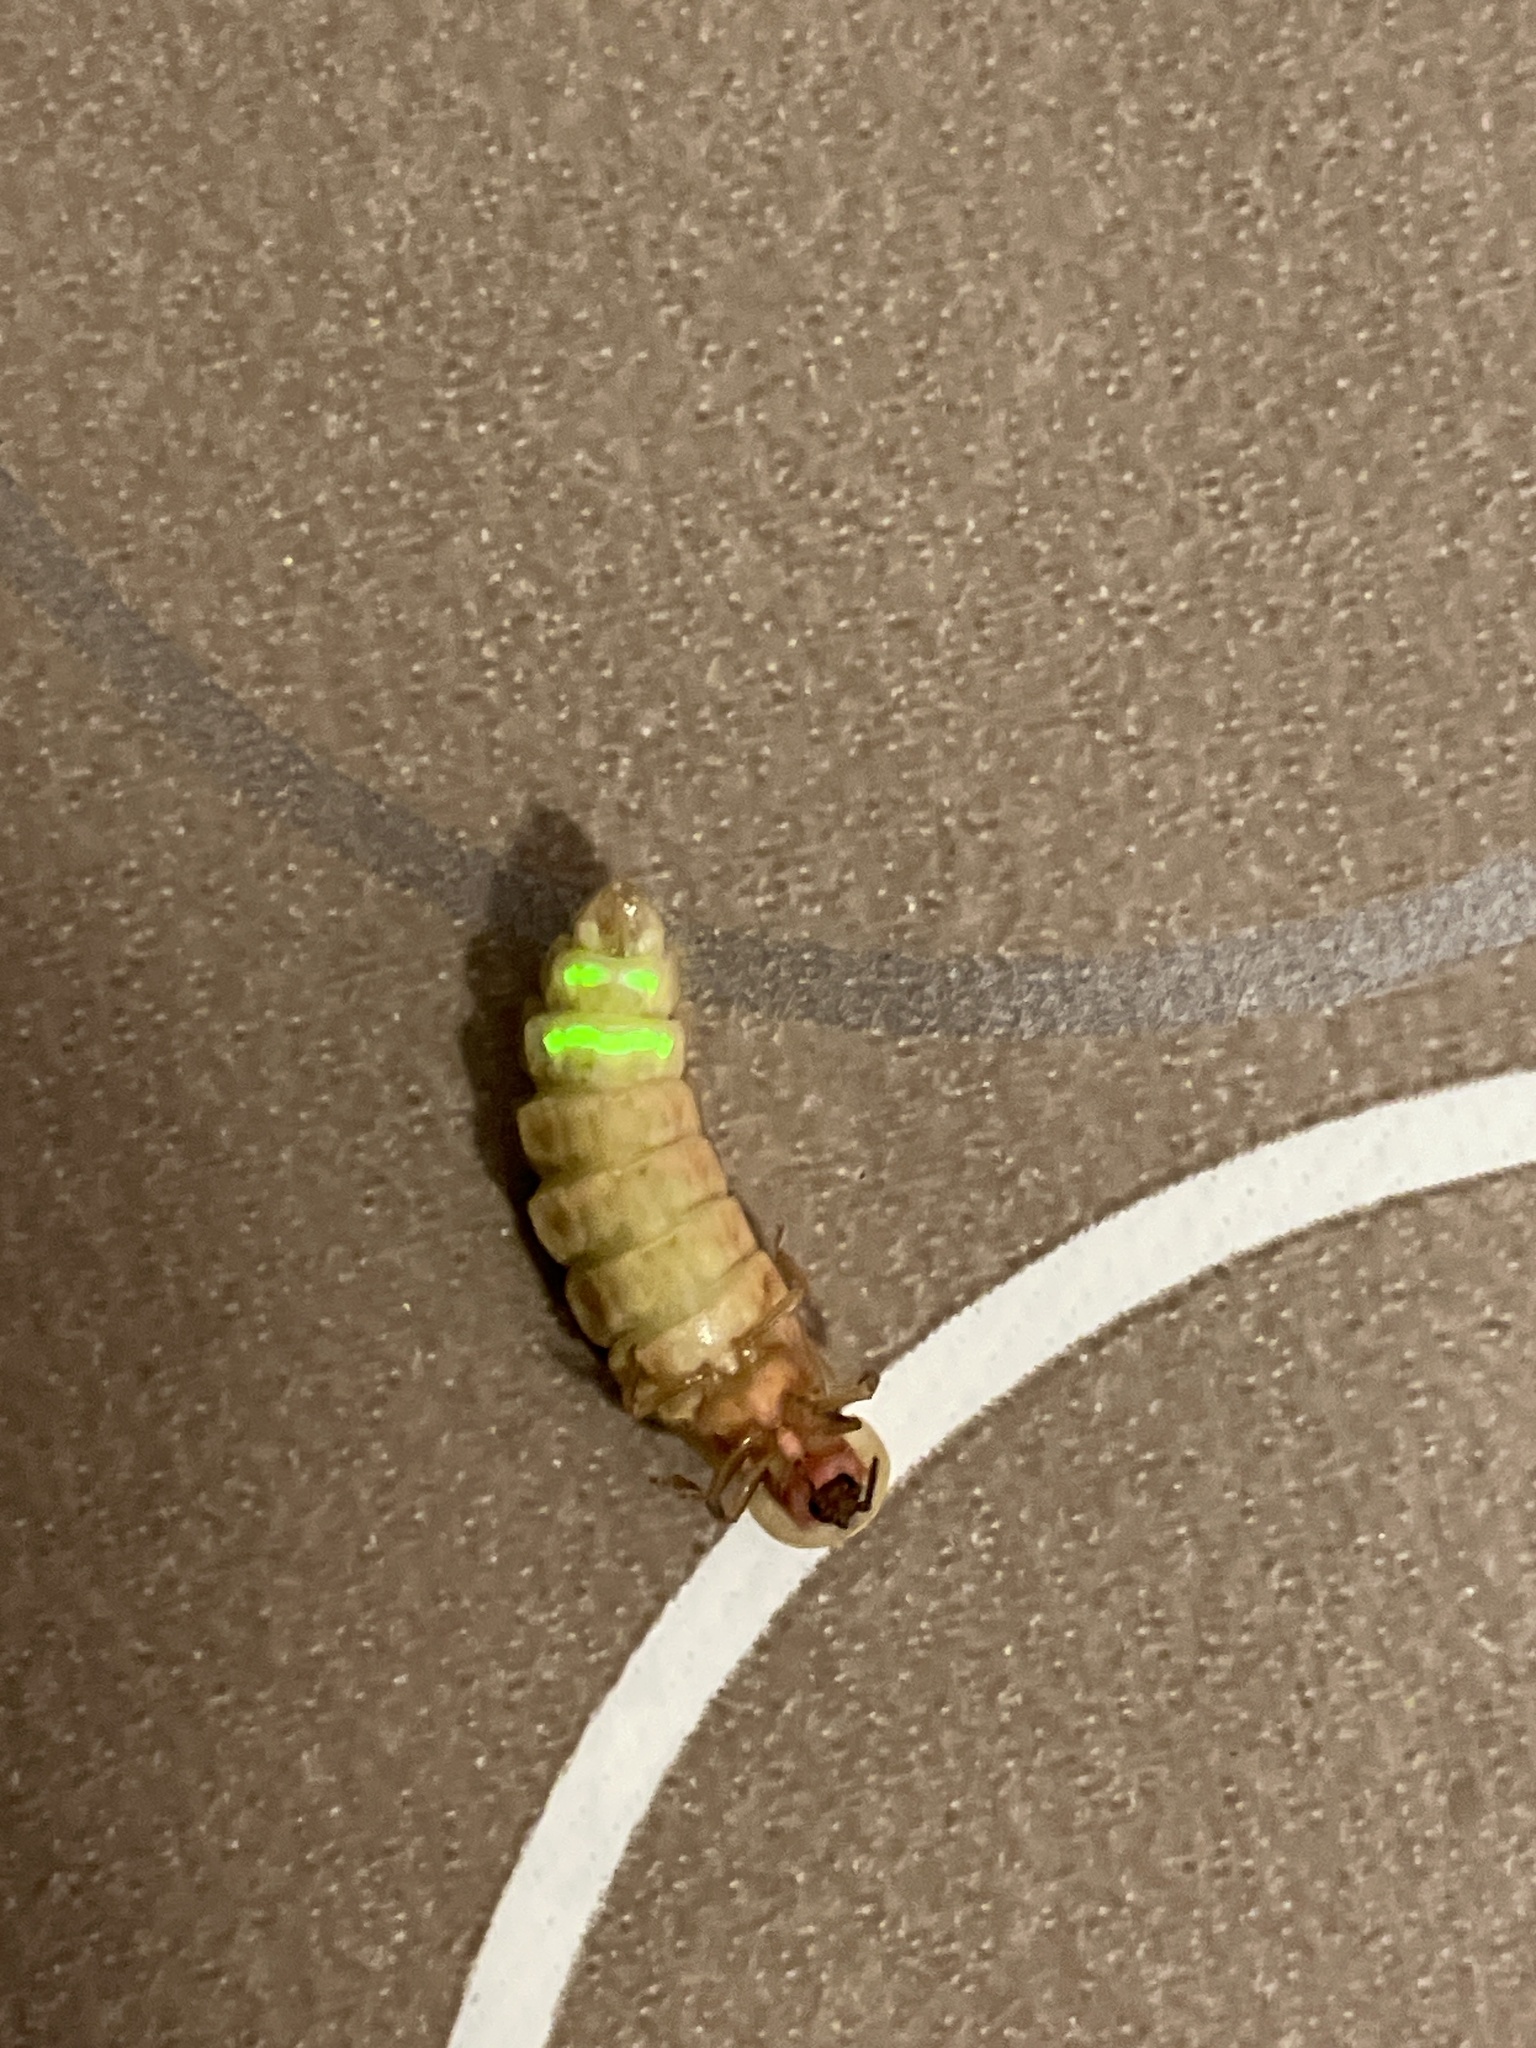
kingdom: Animalia
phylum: Arthropoda
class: Insecta
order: Coleoptera
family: Lampyridae
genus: Lampyris
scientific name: Lampyris germariensis
